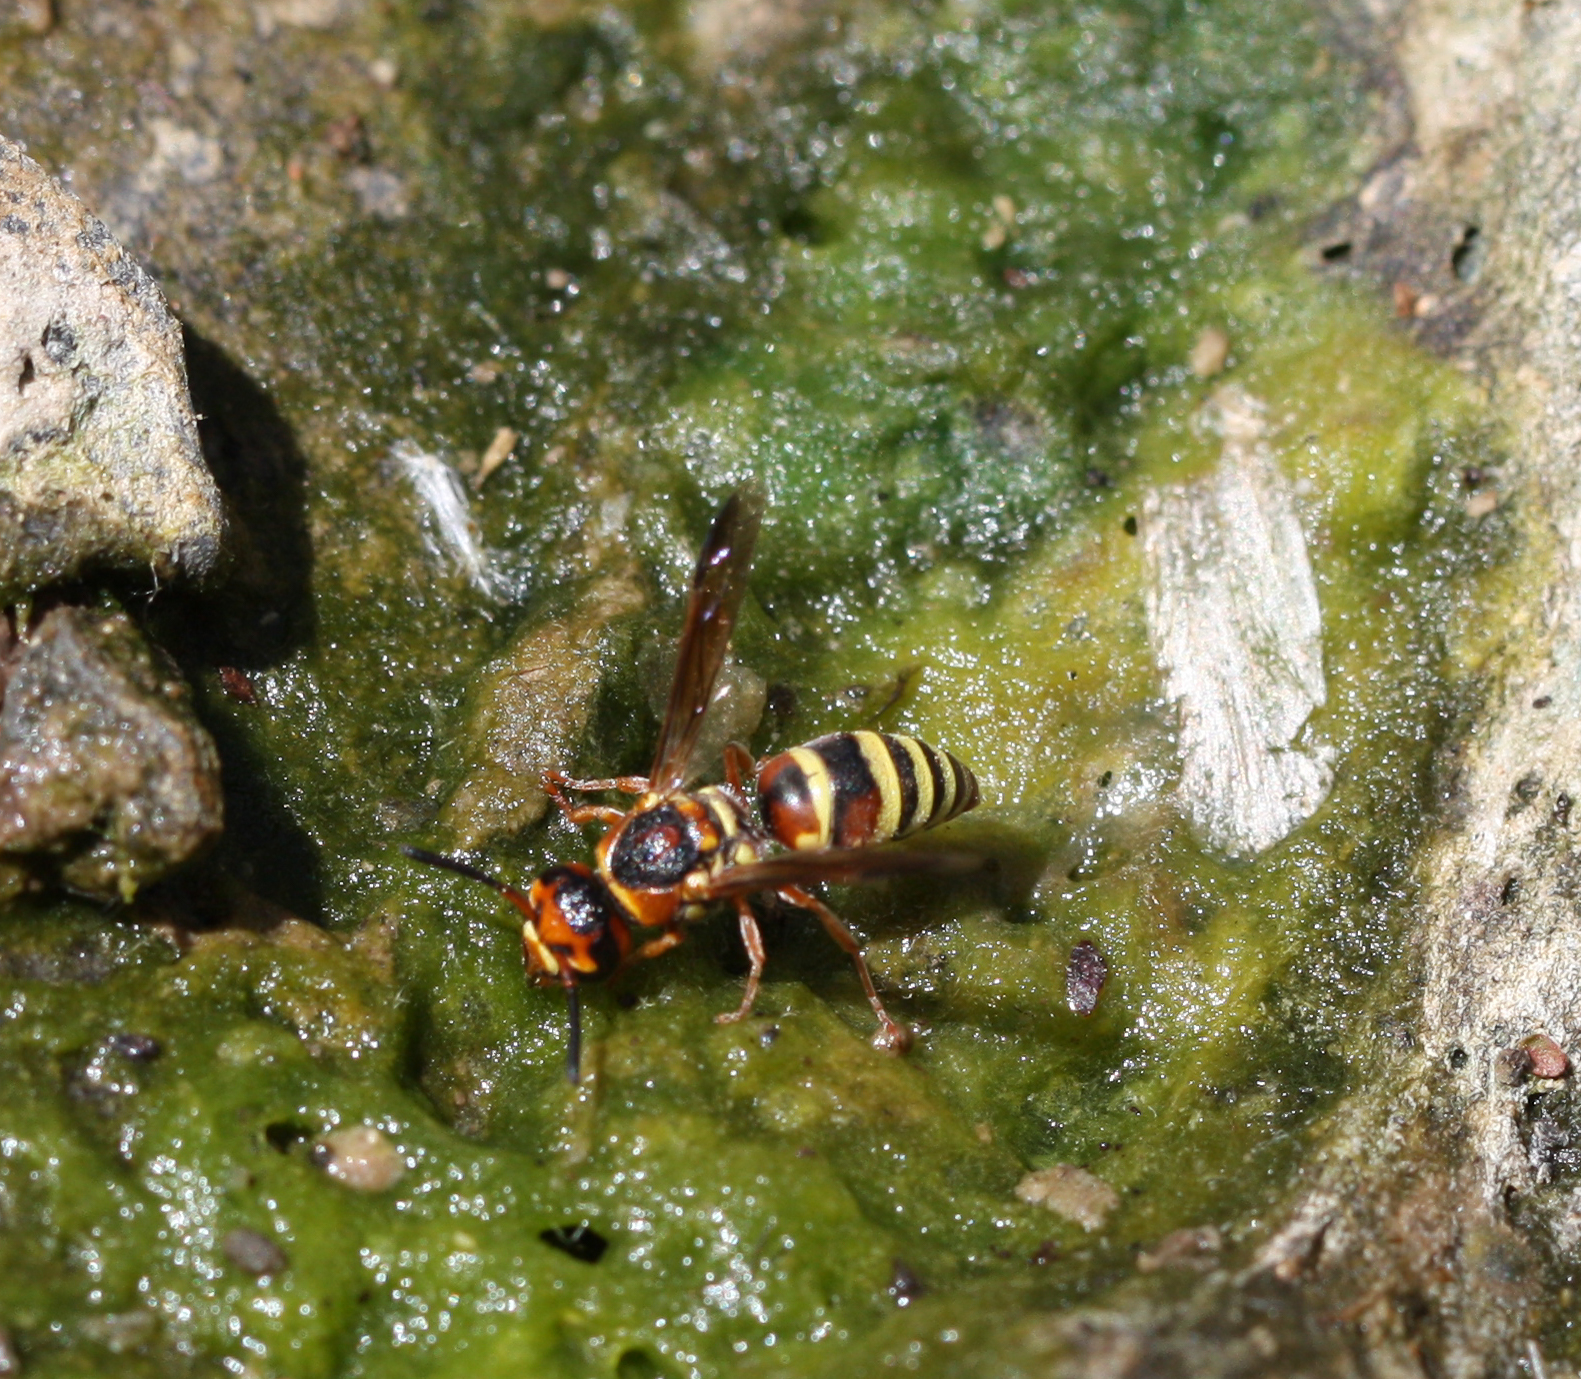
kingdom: Animalia
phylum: Arthropoda
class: Insecta
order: Hymenoptera
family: Eumenidae
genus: Euodynerus
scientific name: Euodynerus annulatus
